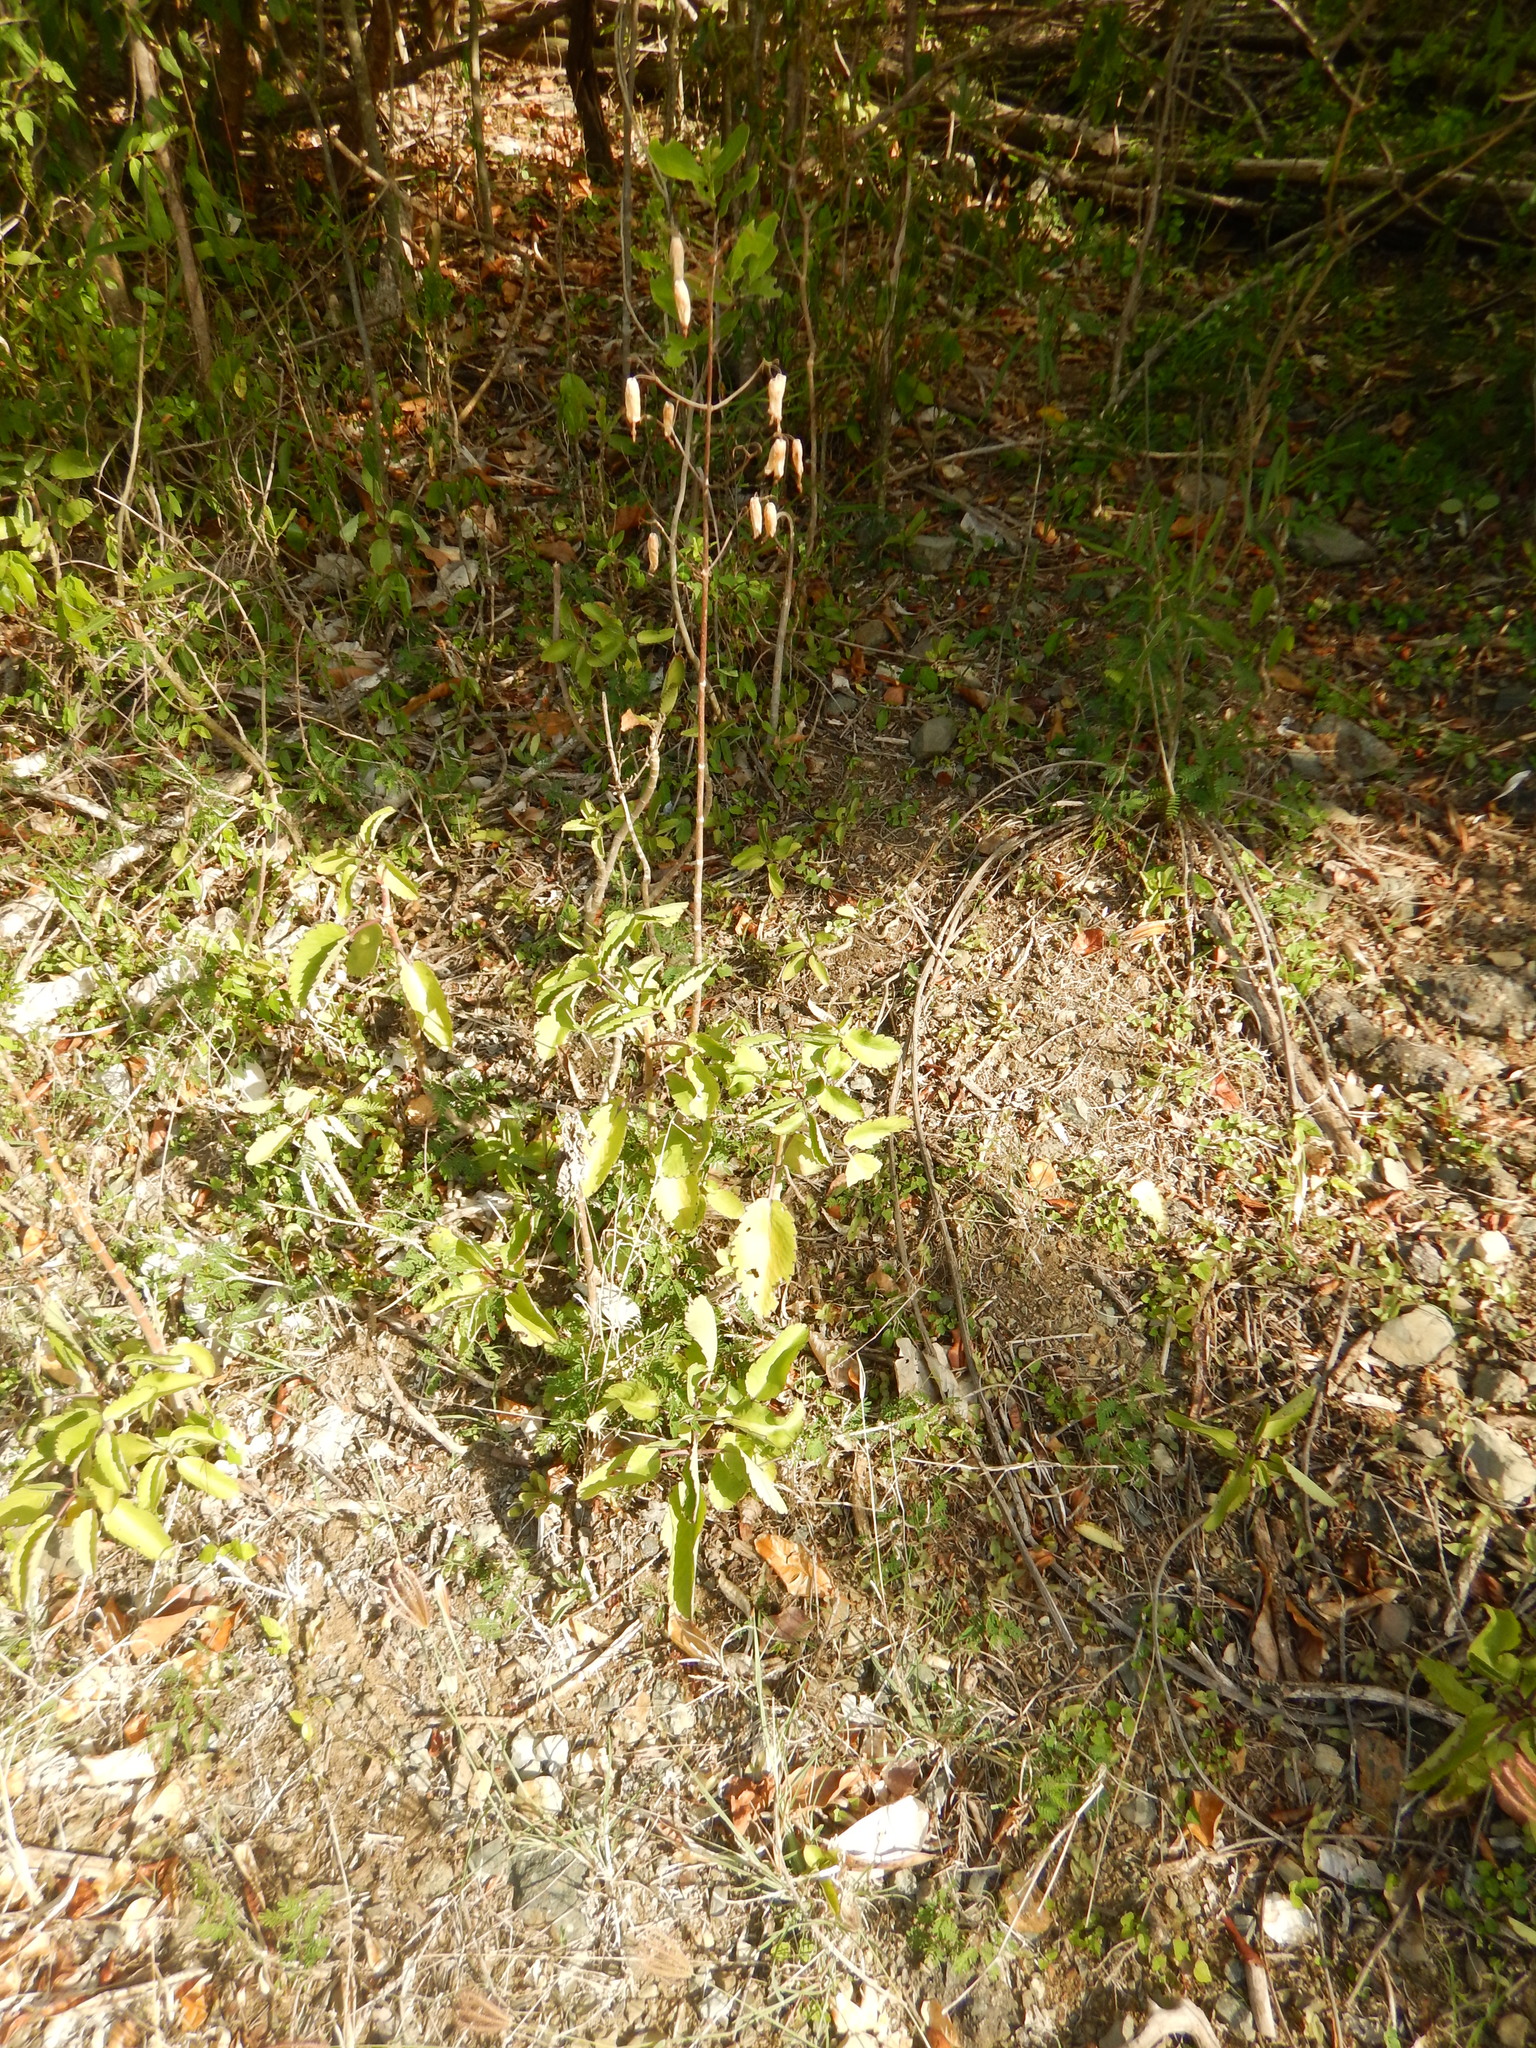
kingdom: Plantae
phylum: Tracheophyta
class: Magnoliopsida
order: Saxifragales
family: Crassulaceae
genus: Kalanchoe
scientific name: Kalanchoe pinnata
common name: Cathedral bells
